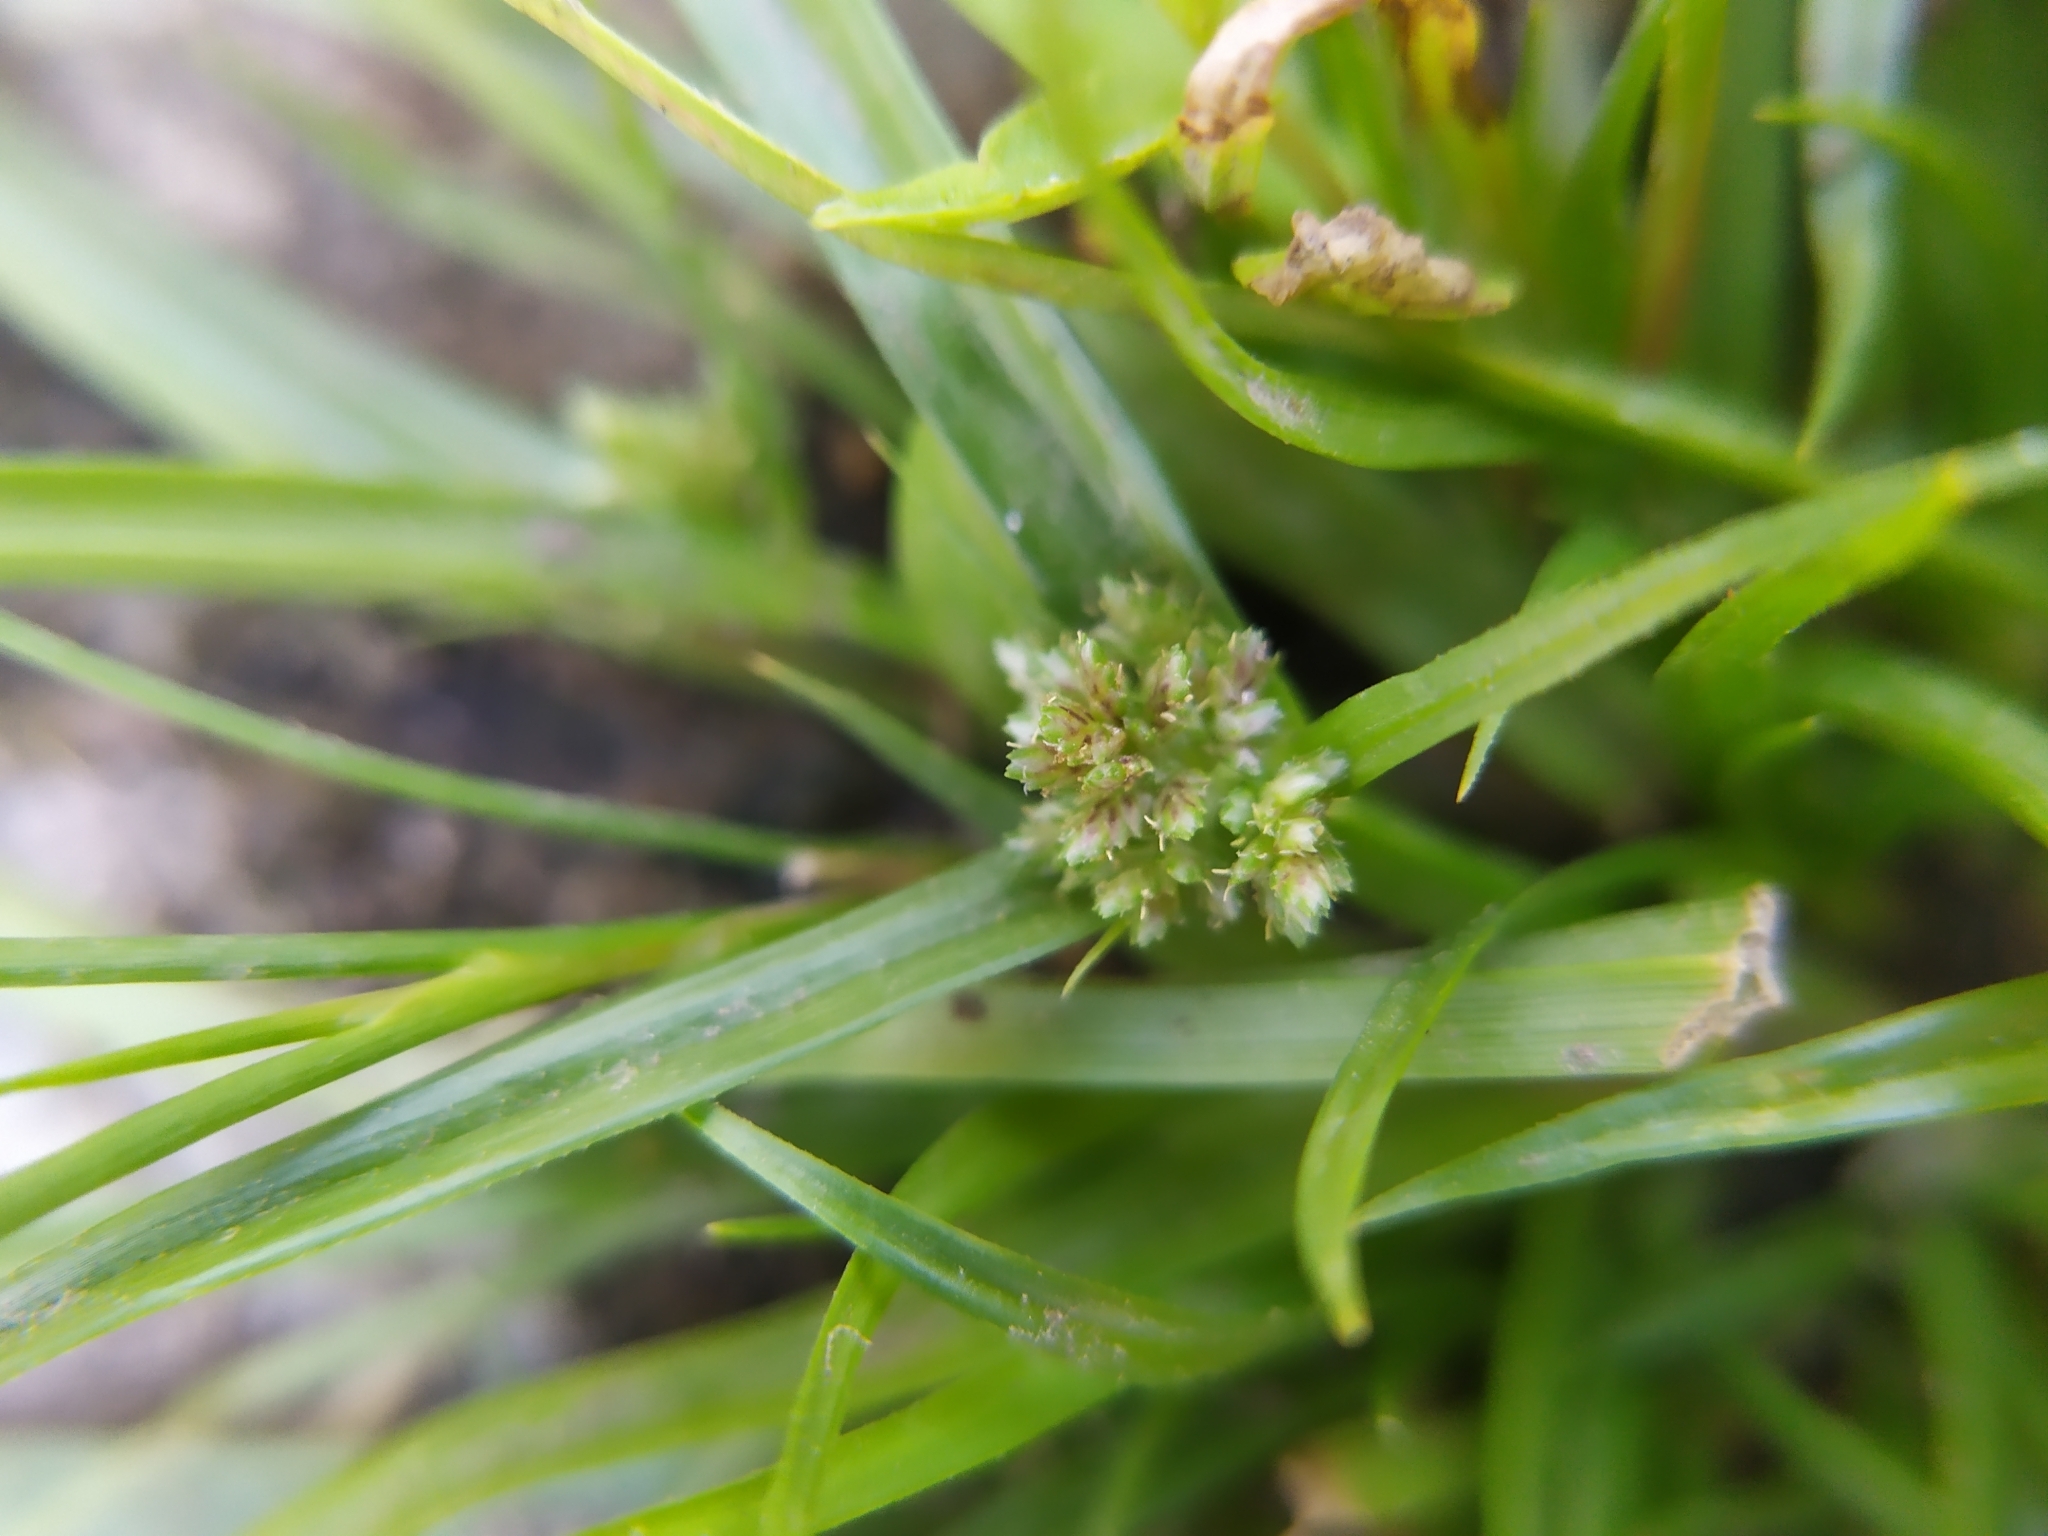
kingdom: Plantae
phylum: Tracheophyta
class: Liliopsida
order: Poales
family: Cyperaceae
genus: Cyperus
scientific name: Cyperus fuscus
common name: Brown galingale
